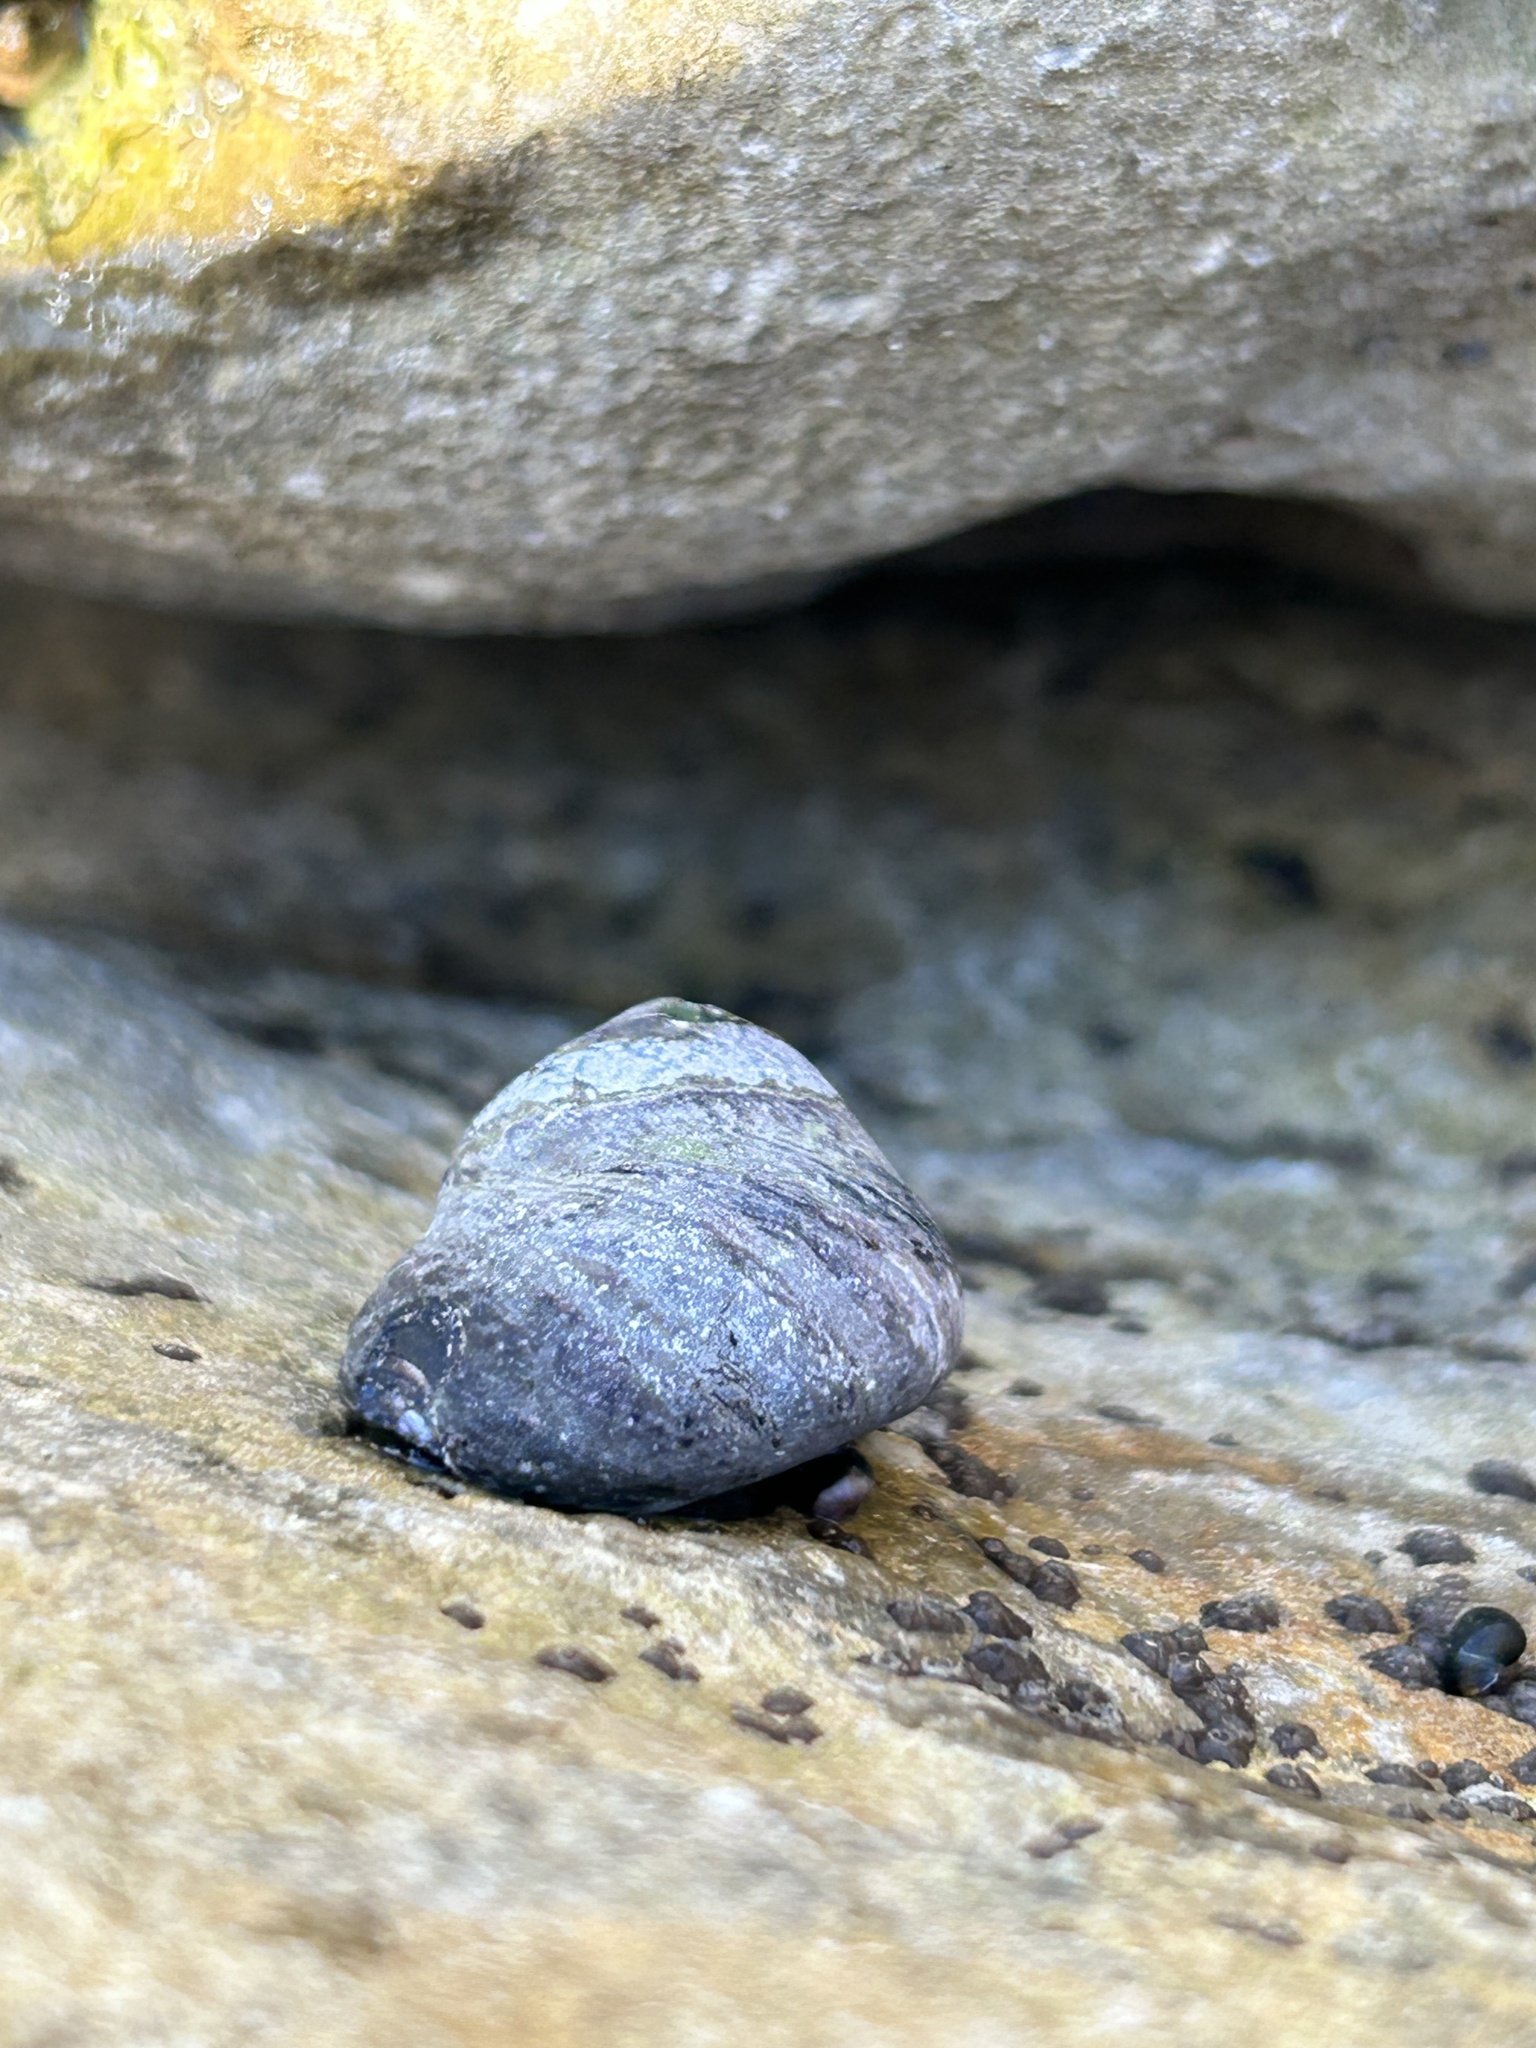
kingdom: Animalia
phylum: Mollusca
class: Gastropoda
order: Trochida
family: Tegulidae
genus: Tegula
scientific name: Tegula funebralis
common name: Black tegula
